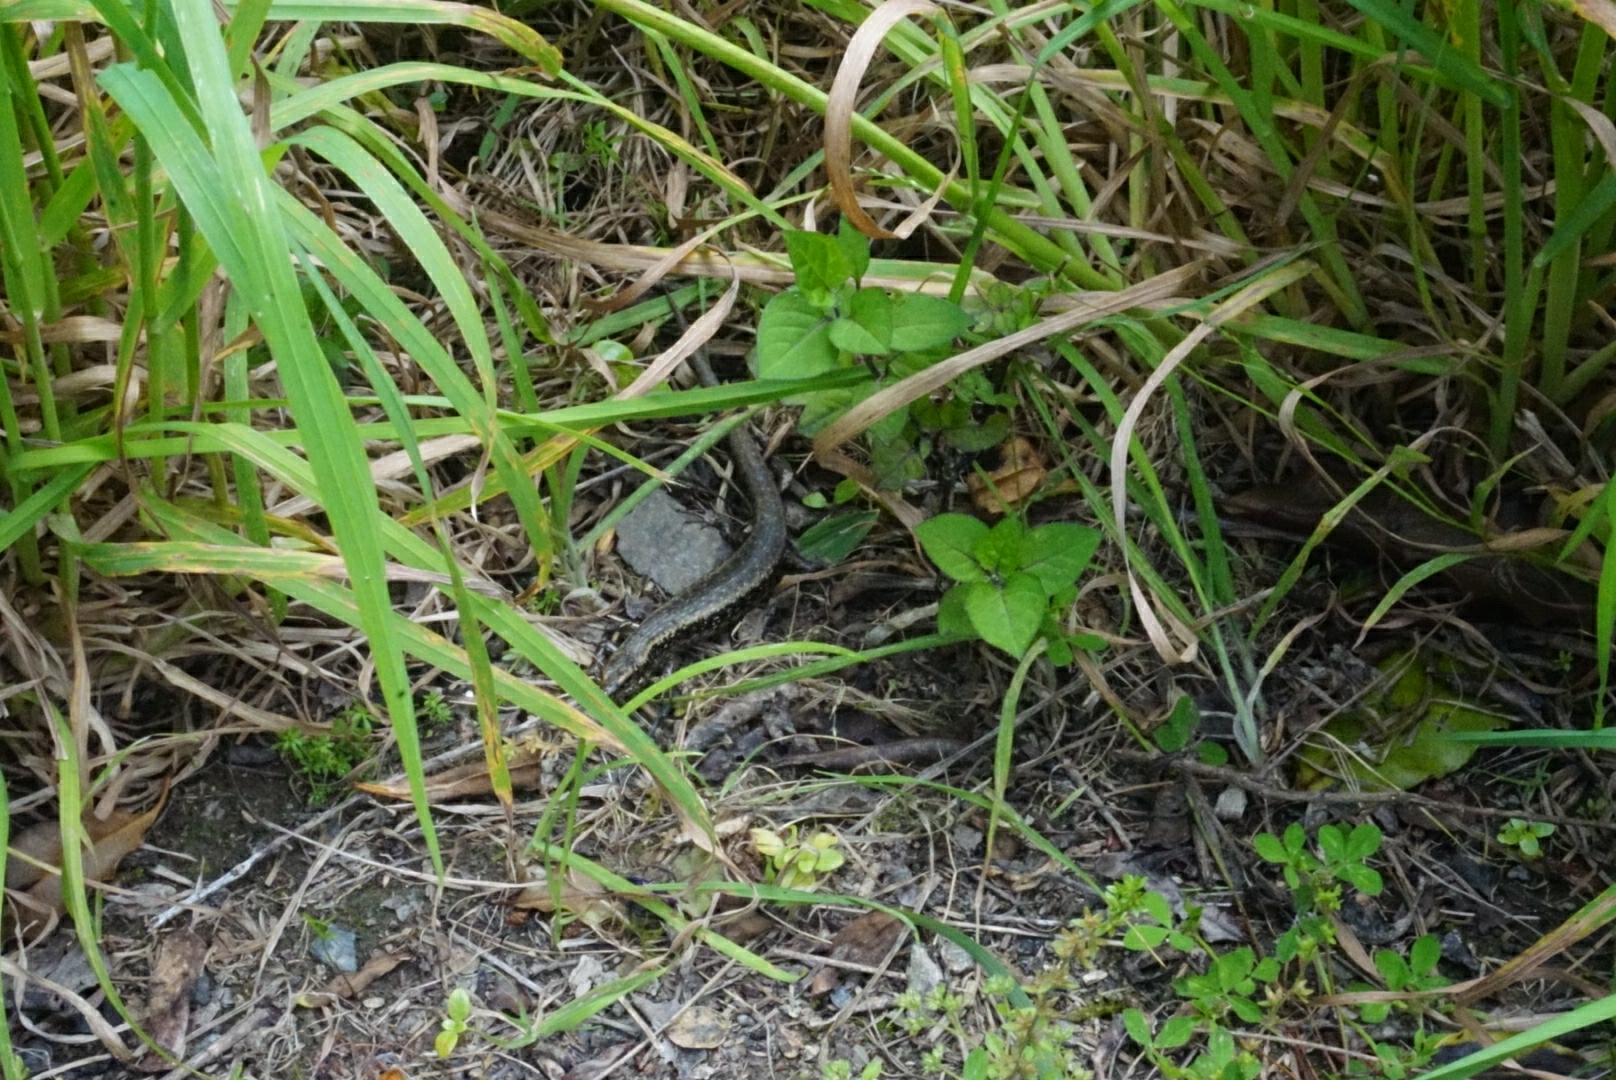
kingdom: Animalia
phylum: Chordata
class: Squamata
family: Scincidae
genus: Oligosoma
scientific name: Oligosoma kokowai
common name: Northern spotted skink
